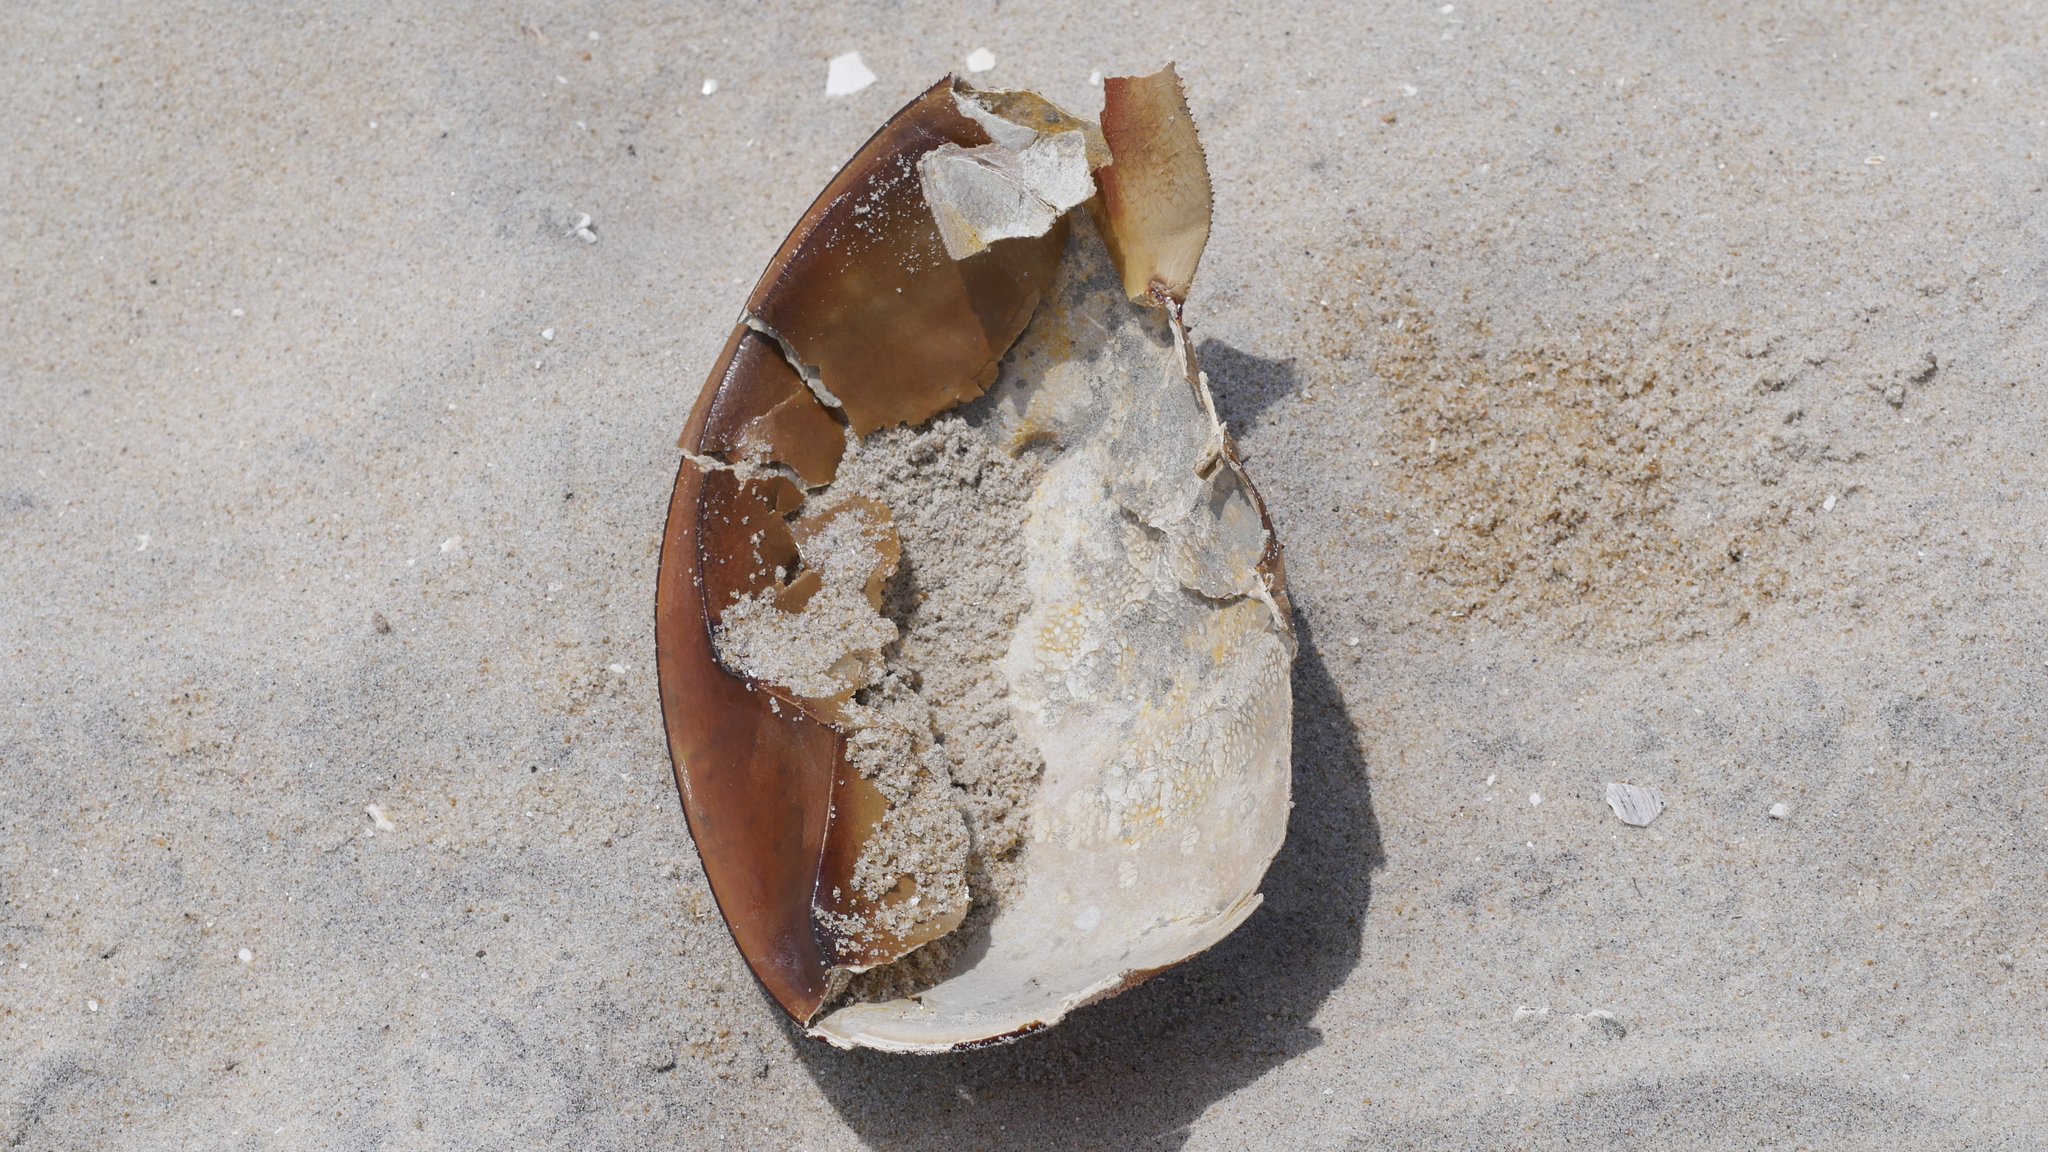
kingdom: Animalia
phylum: Arthropoda
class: Merostomata
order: Xiphosurida
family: Limulidae
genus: Limulus
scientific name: Limulus polyphemus
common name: Horseshoe crab
